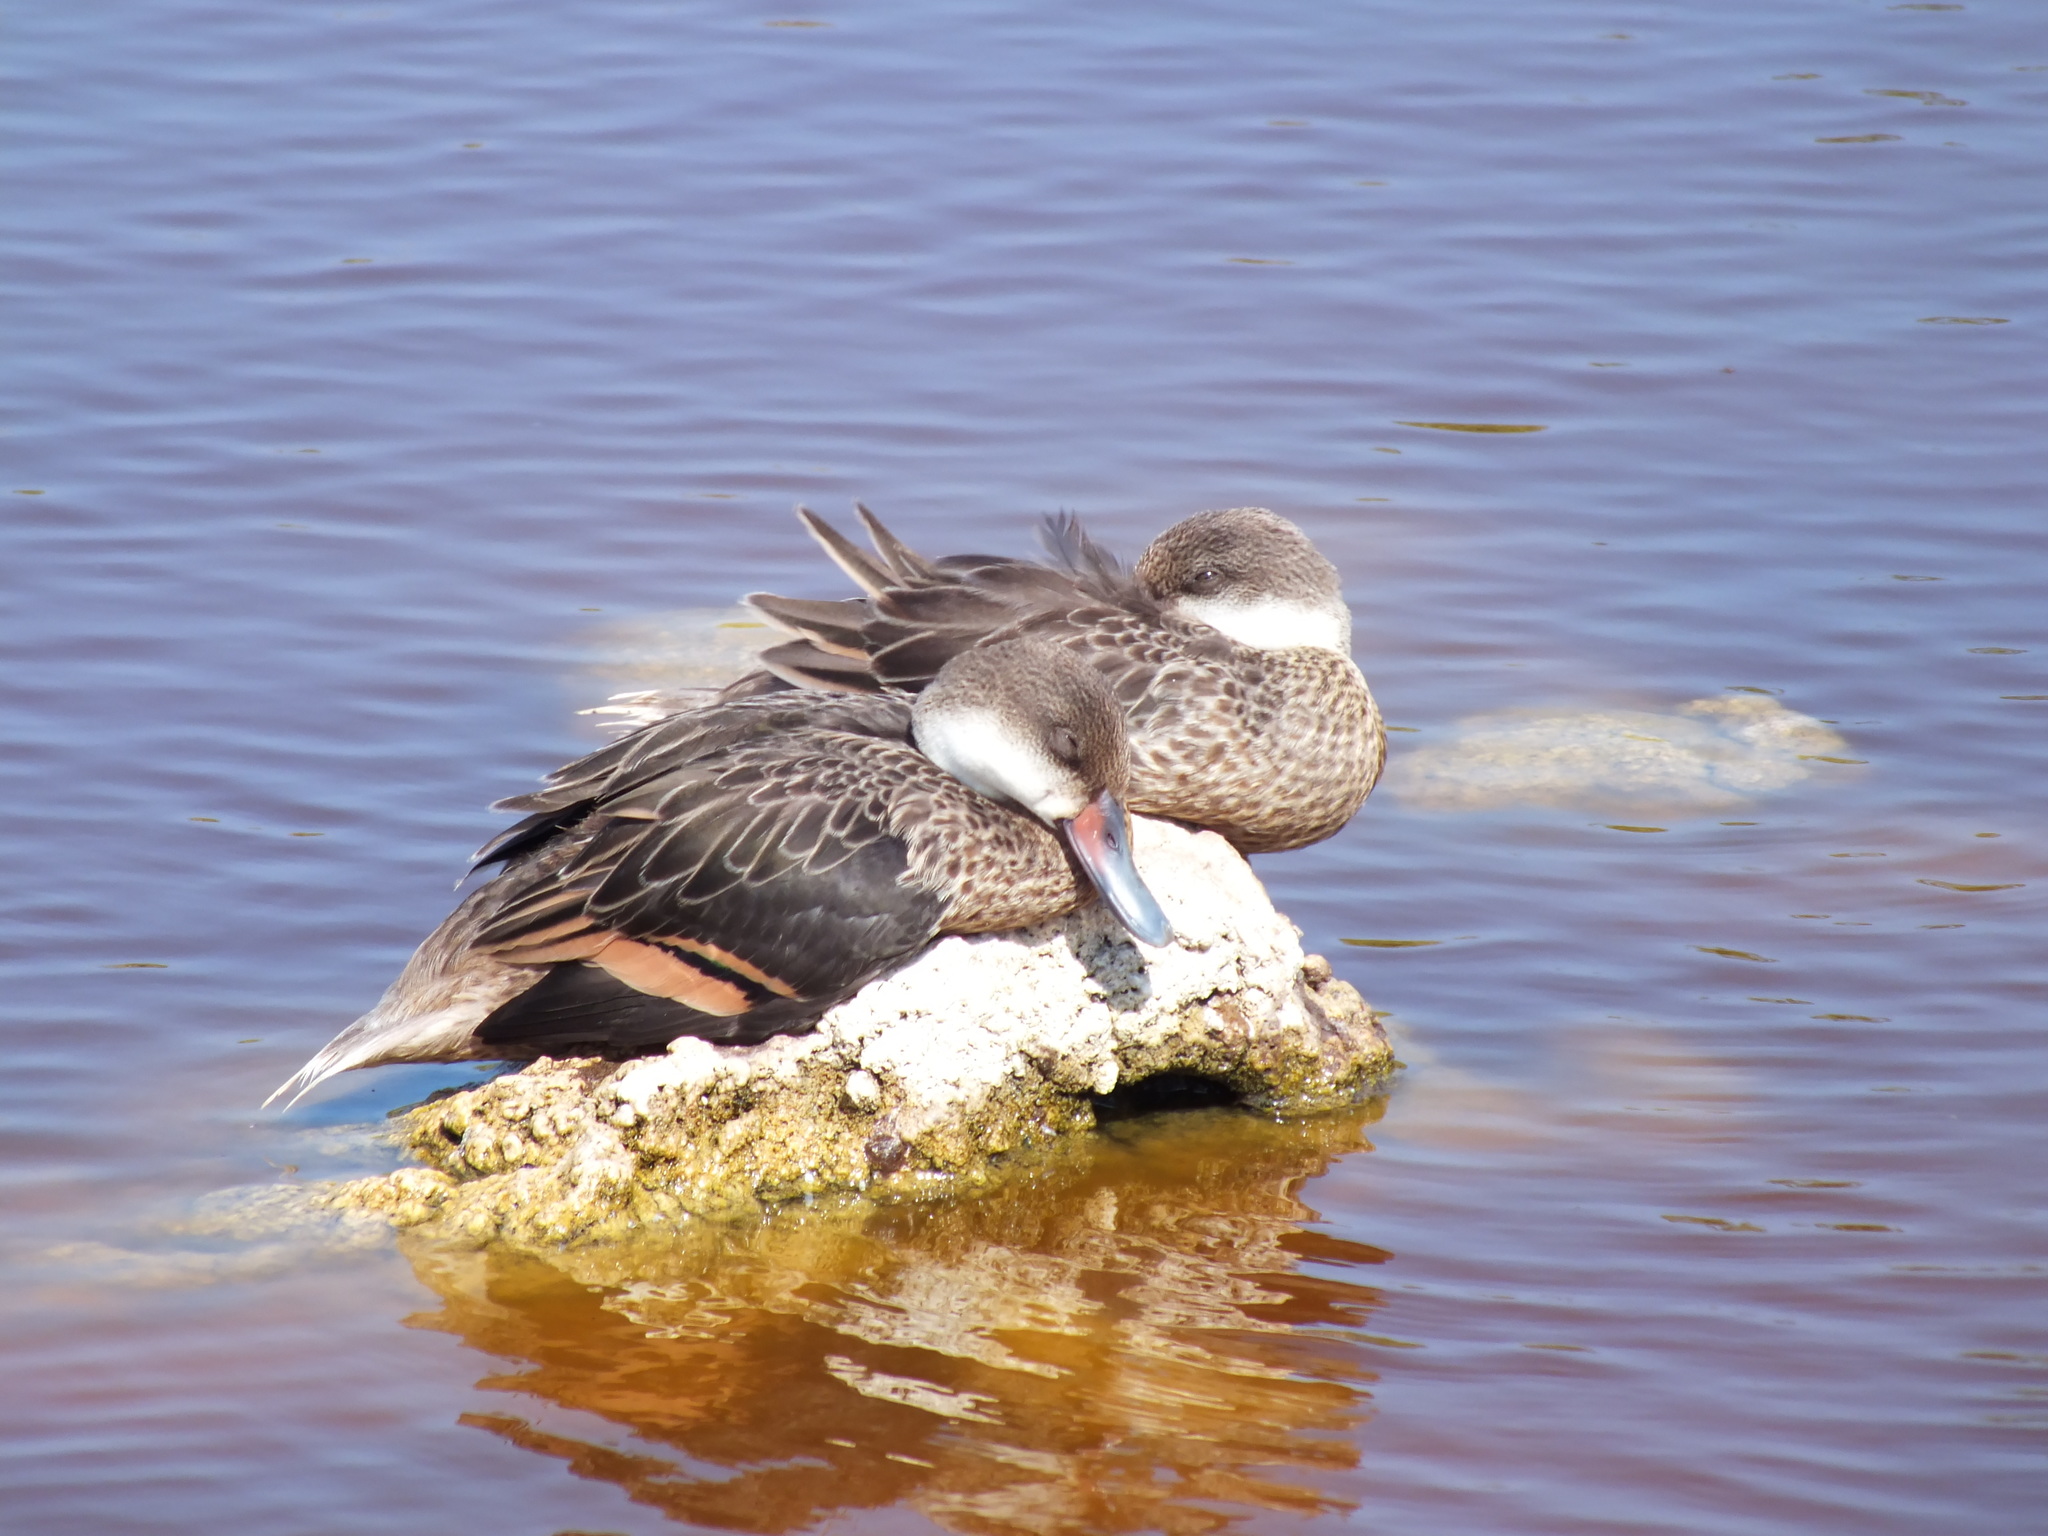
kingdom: Animalia
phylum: Chordata
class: Aves
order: Anseriformes
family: Anatidae
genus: Anas
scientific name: Anas bahamensis
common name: White-cheeked pintail
